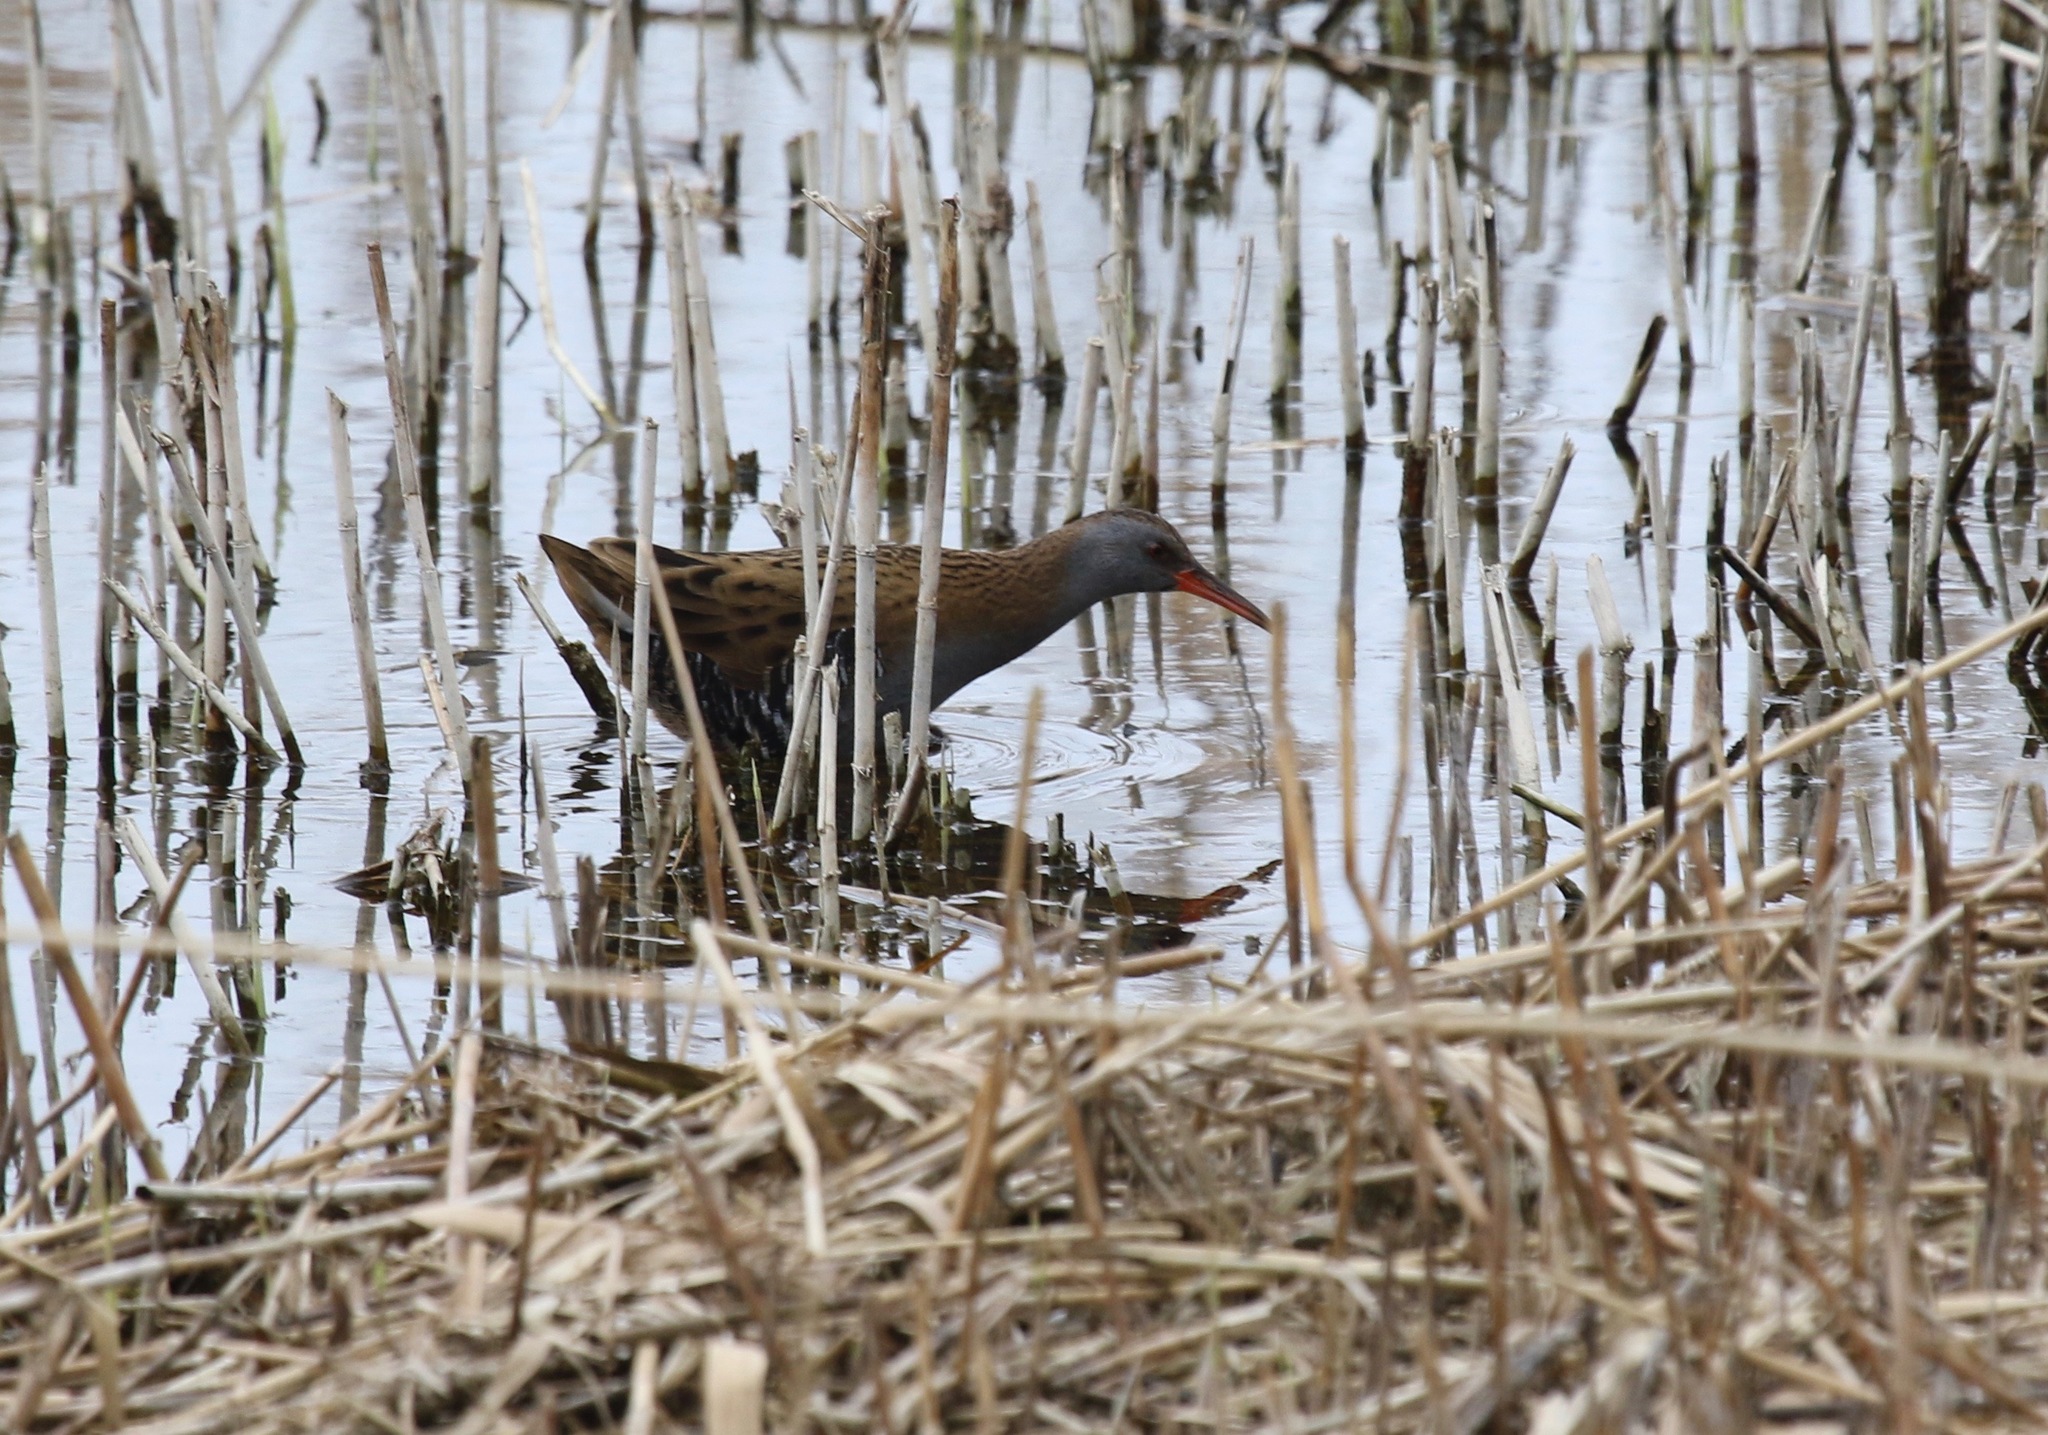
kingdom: Animalia
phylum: Chordata
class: Aves
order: Gruiformes
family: Rallidae
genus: Rallus
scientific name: Rallus aquaticus
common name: Water rail
